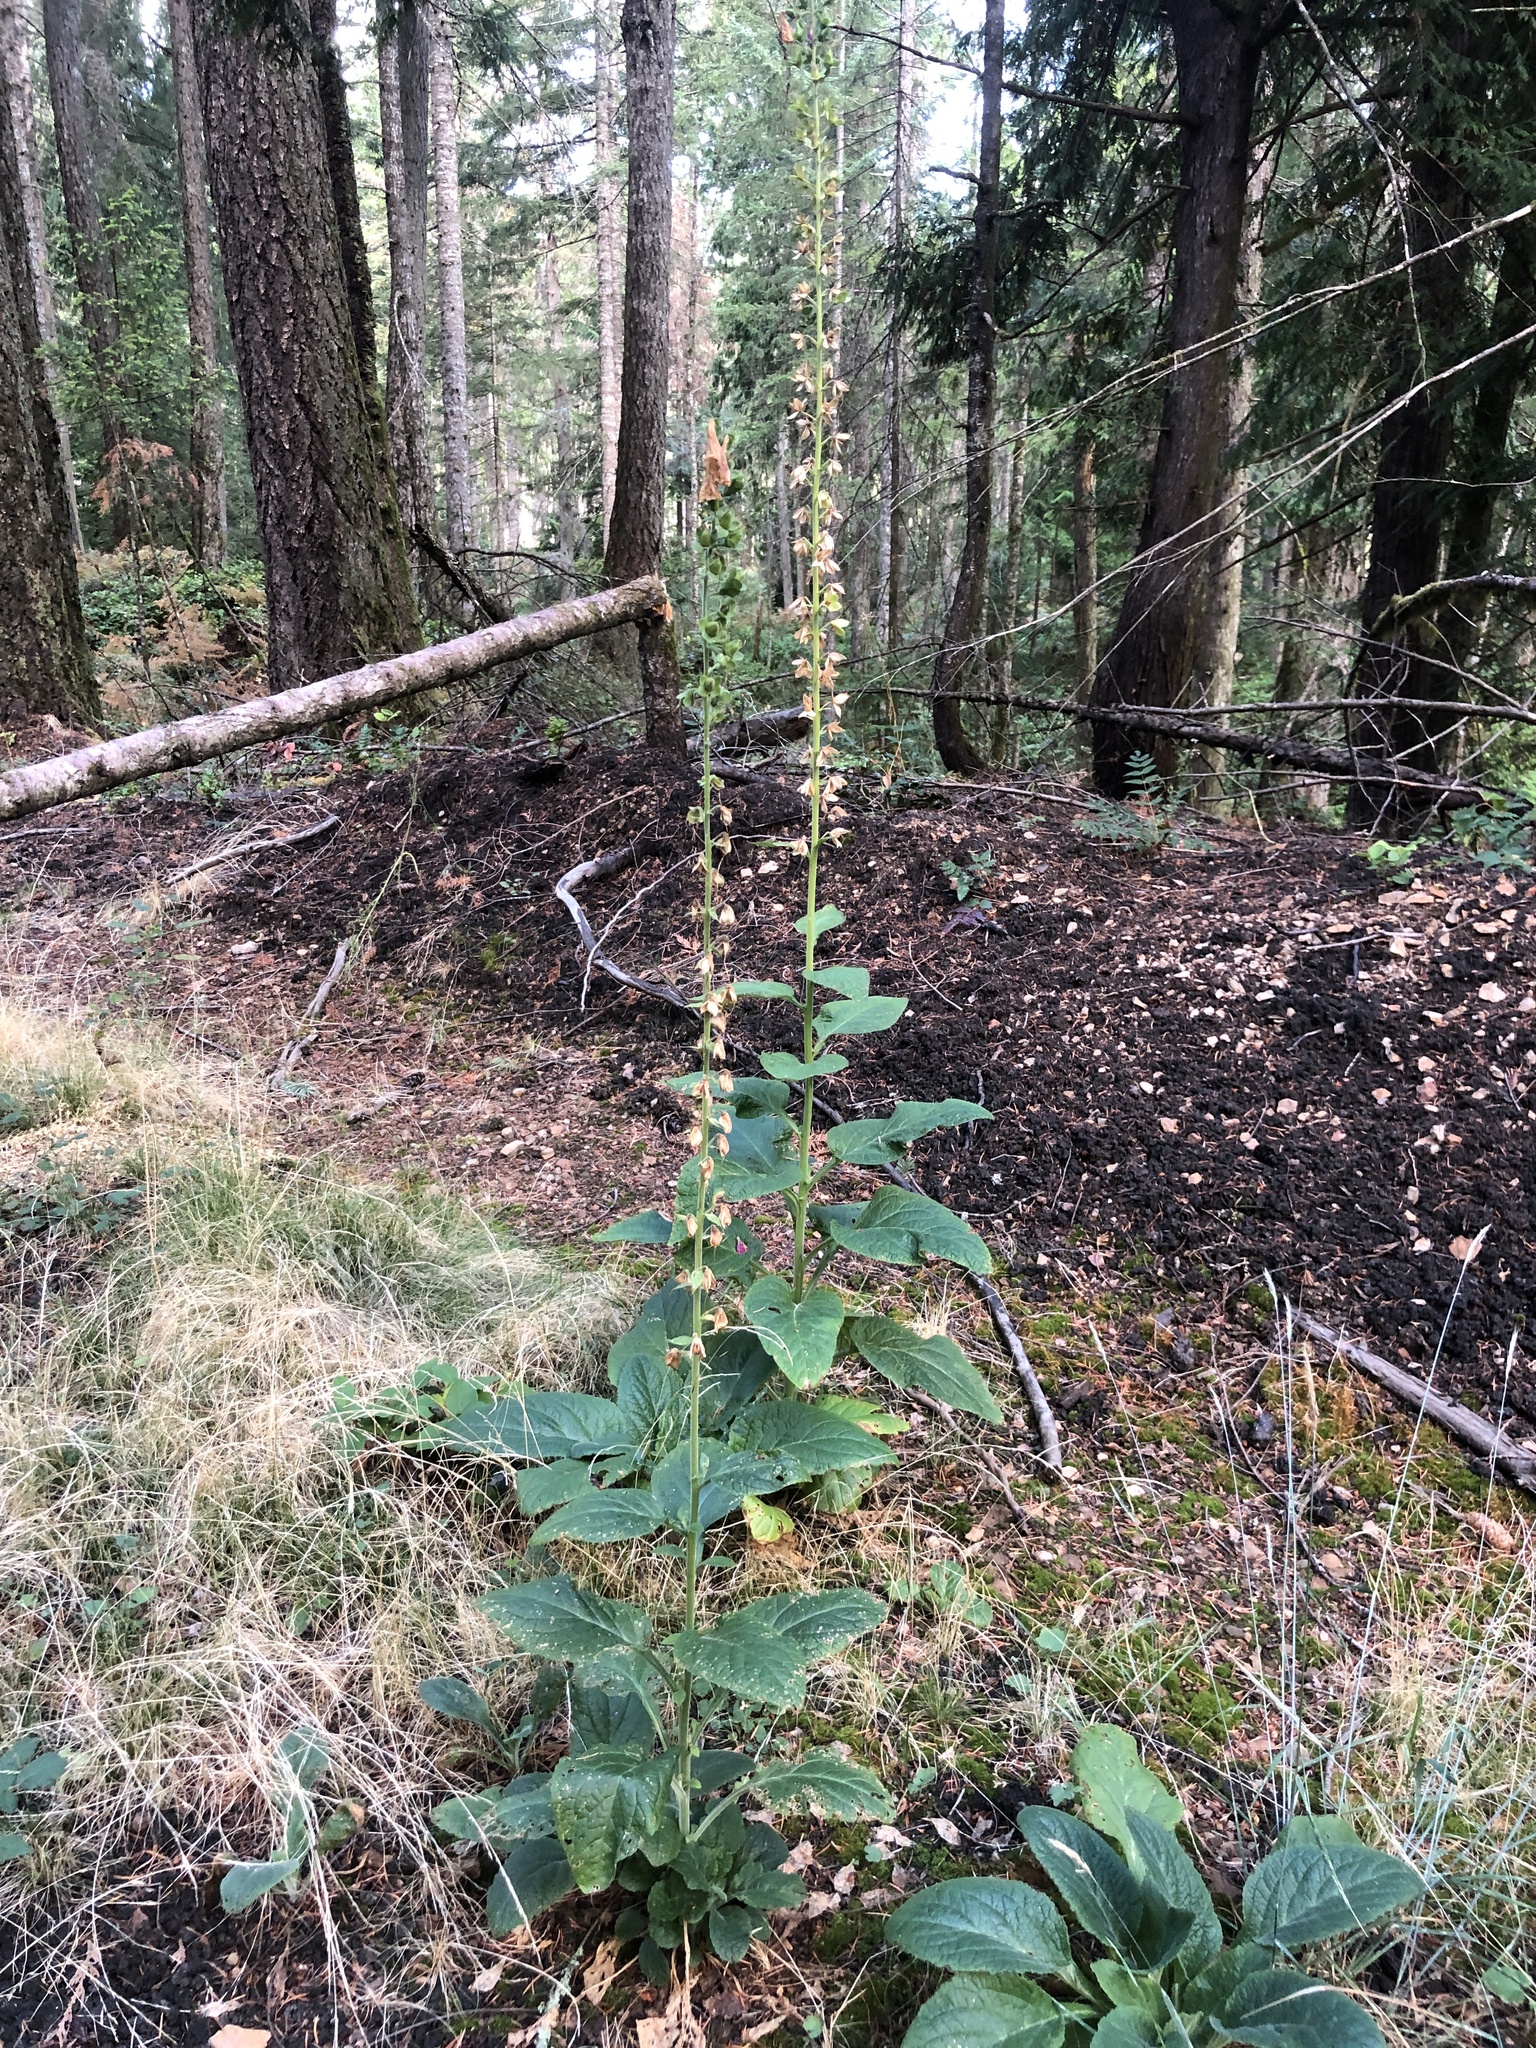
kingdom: Plantae
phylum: Tracheophyta
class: Magnoliopsida
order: Lamiales
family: Plantaginaceae
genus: Digitalis
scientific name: Digitalis purpurea
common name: Foxglove
